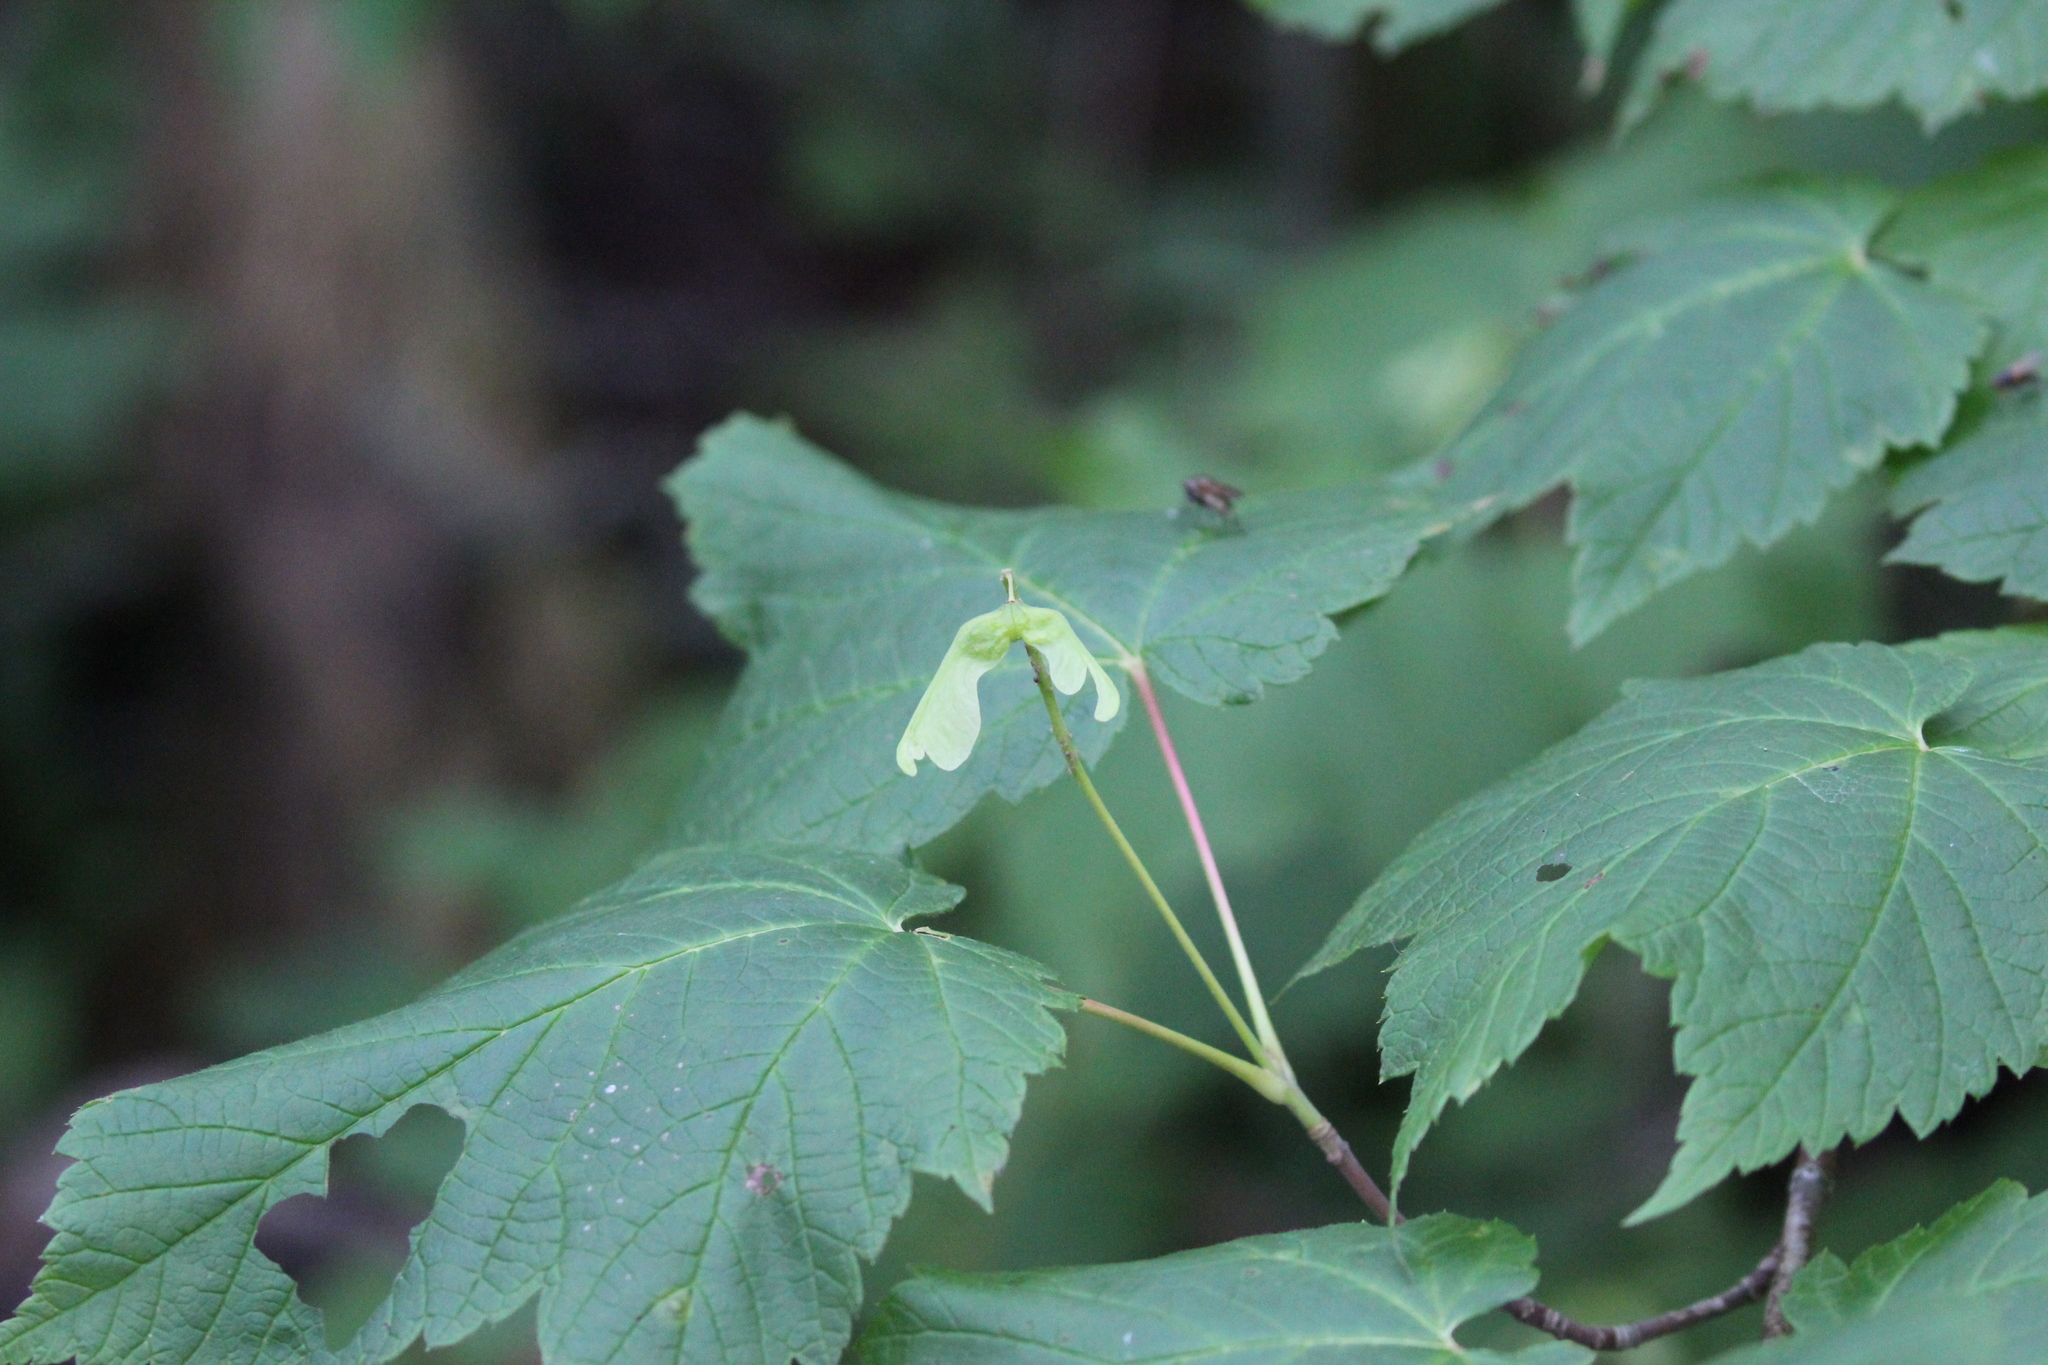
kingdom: Plantae
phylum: Tracheophyta
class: Magnoliopsida
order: Sapindales
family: Sapindaceae
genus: Acer
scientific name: Acer spicatum
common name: Mountain maple
